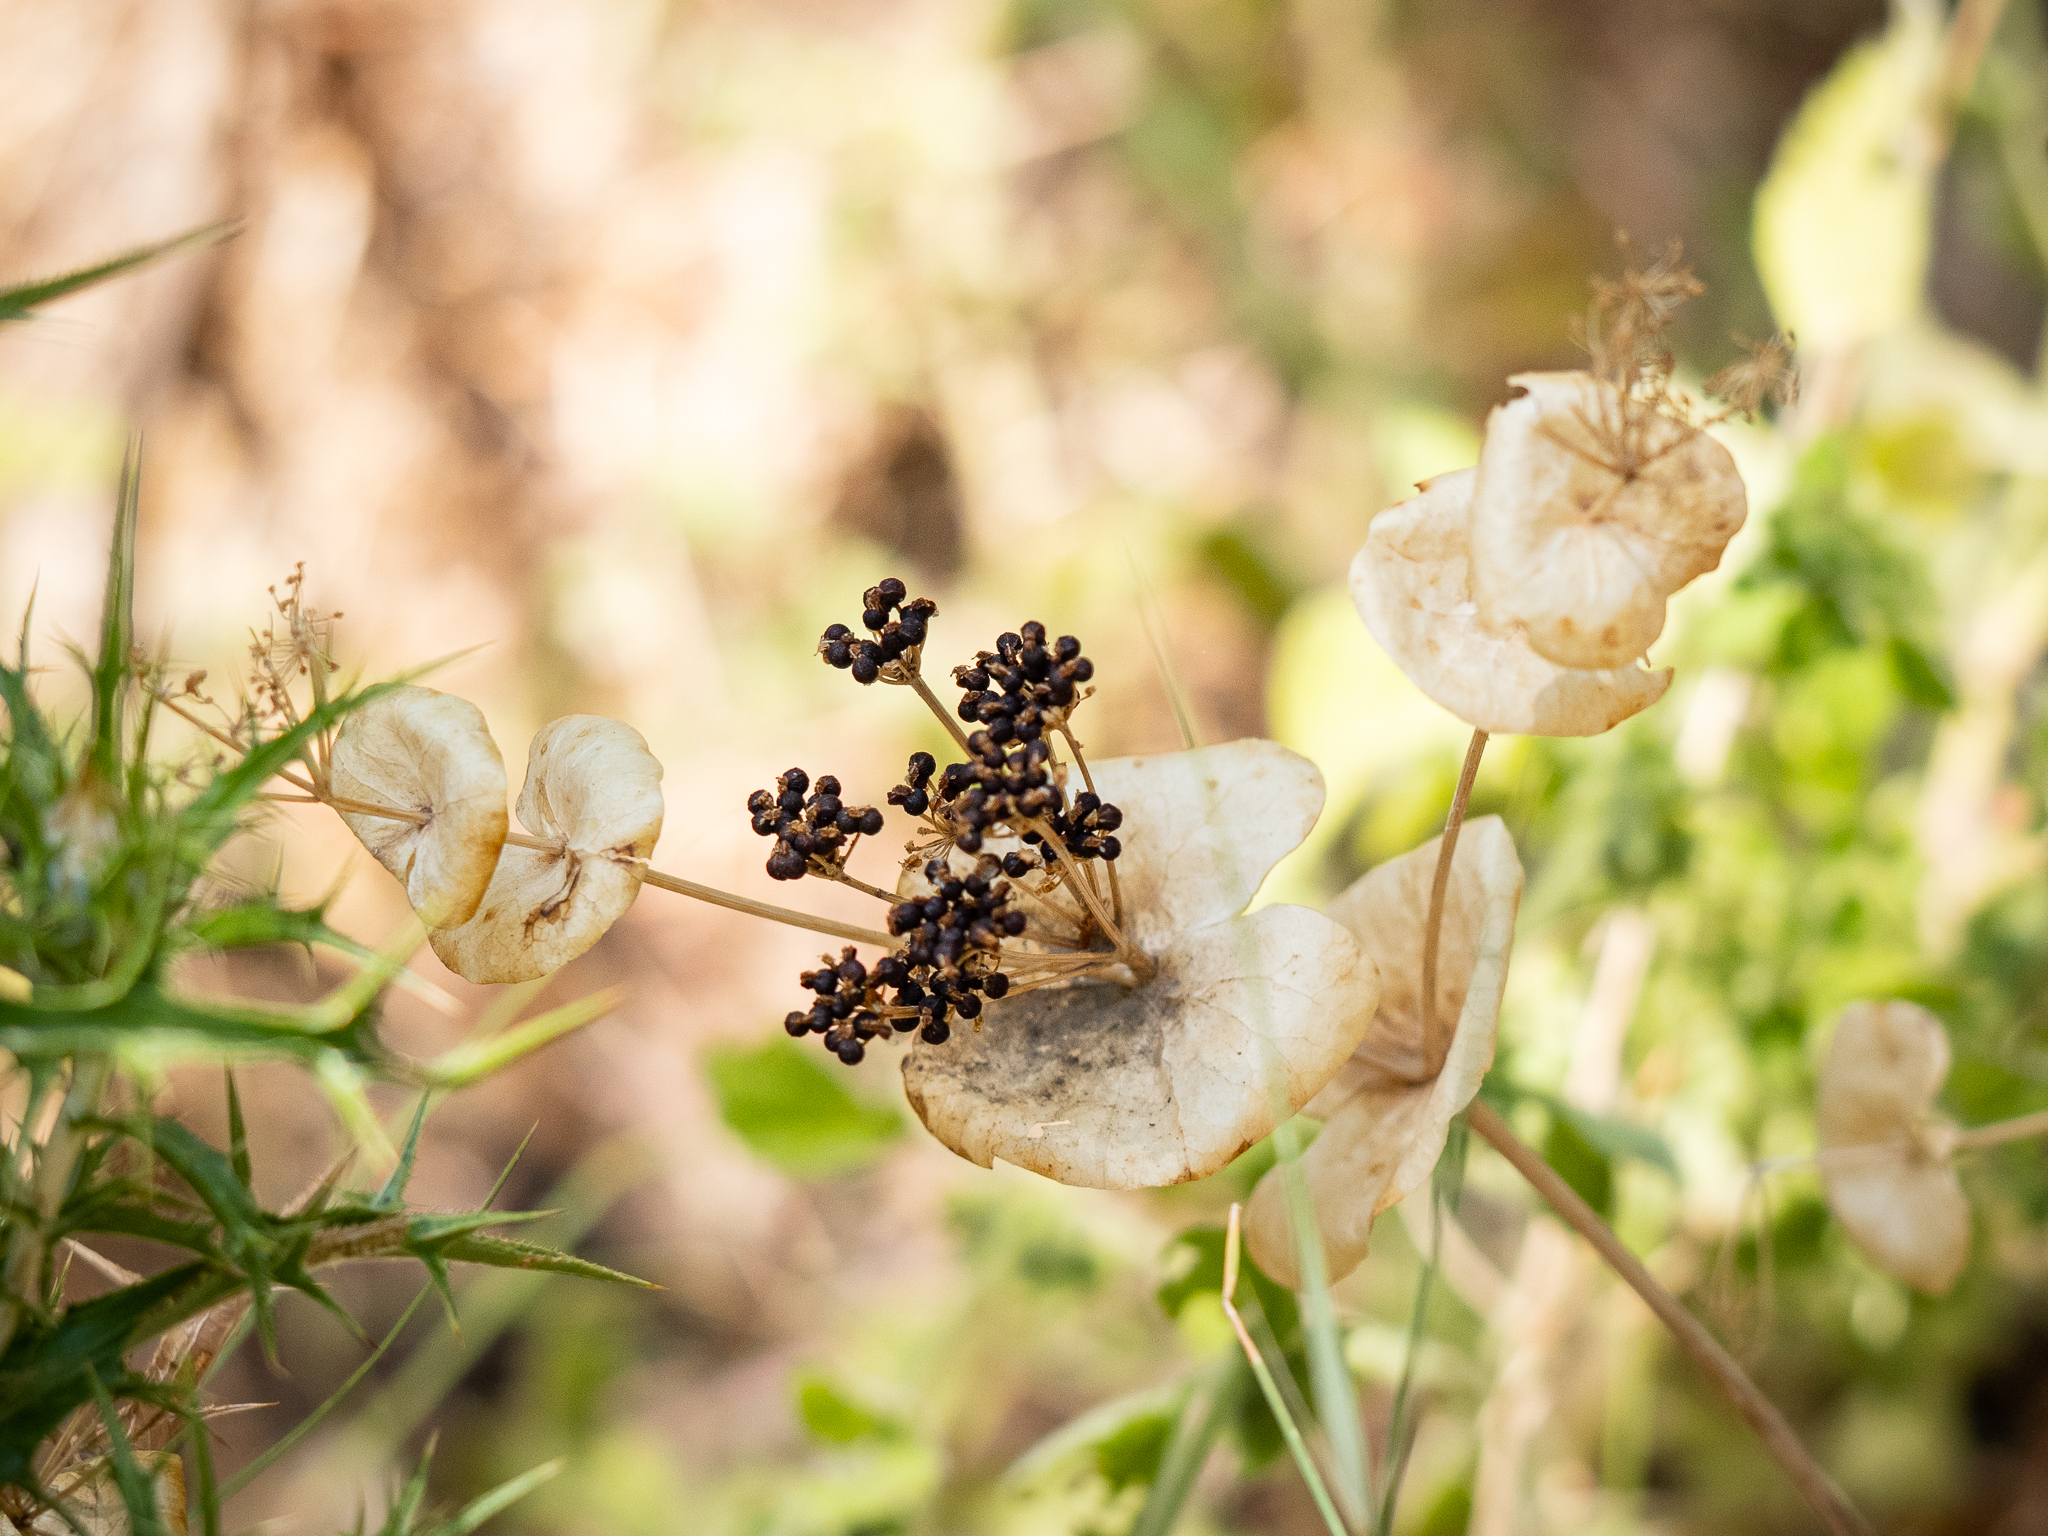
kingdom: Plantae
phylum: Tracheophyta
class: Magnoliopsida
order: Apiales
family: Apiaceae
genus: Smyrnium
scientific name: Smyrnium perfoliatum
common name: Perfoliate alexanders
